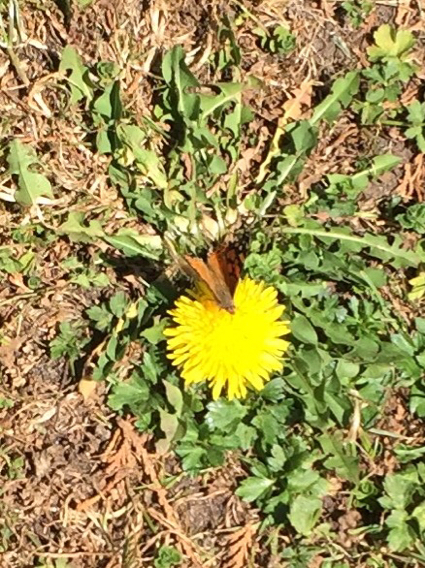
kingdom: Animalia
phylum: Arthropoda
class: Insecta
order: Lepidoptera
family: Nymphalidae
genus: Vanessa
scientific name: Vanessa annabella
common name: West coast lady
